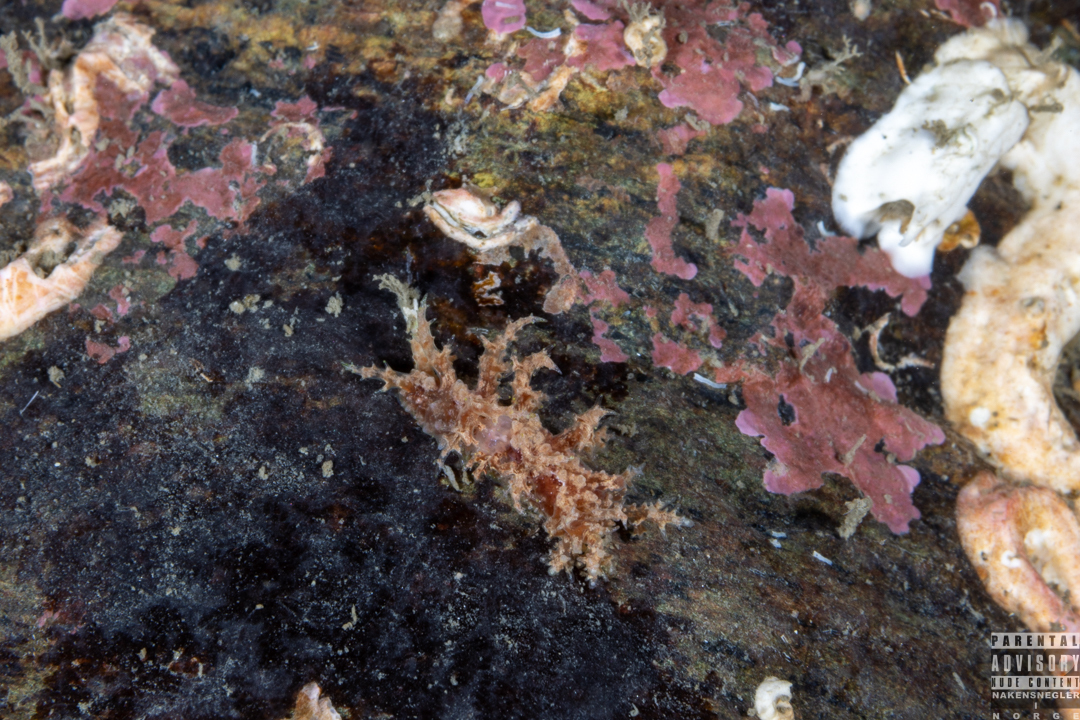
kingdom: Animalia
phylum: Mollusca
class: Gastropoda
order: Nudibranchia
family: Dendronotidae
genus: Dendronotus
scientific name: Dendronotus frondosus
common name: Bushy-backed nudibranch
